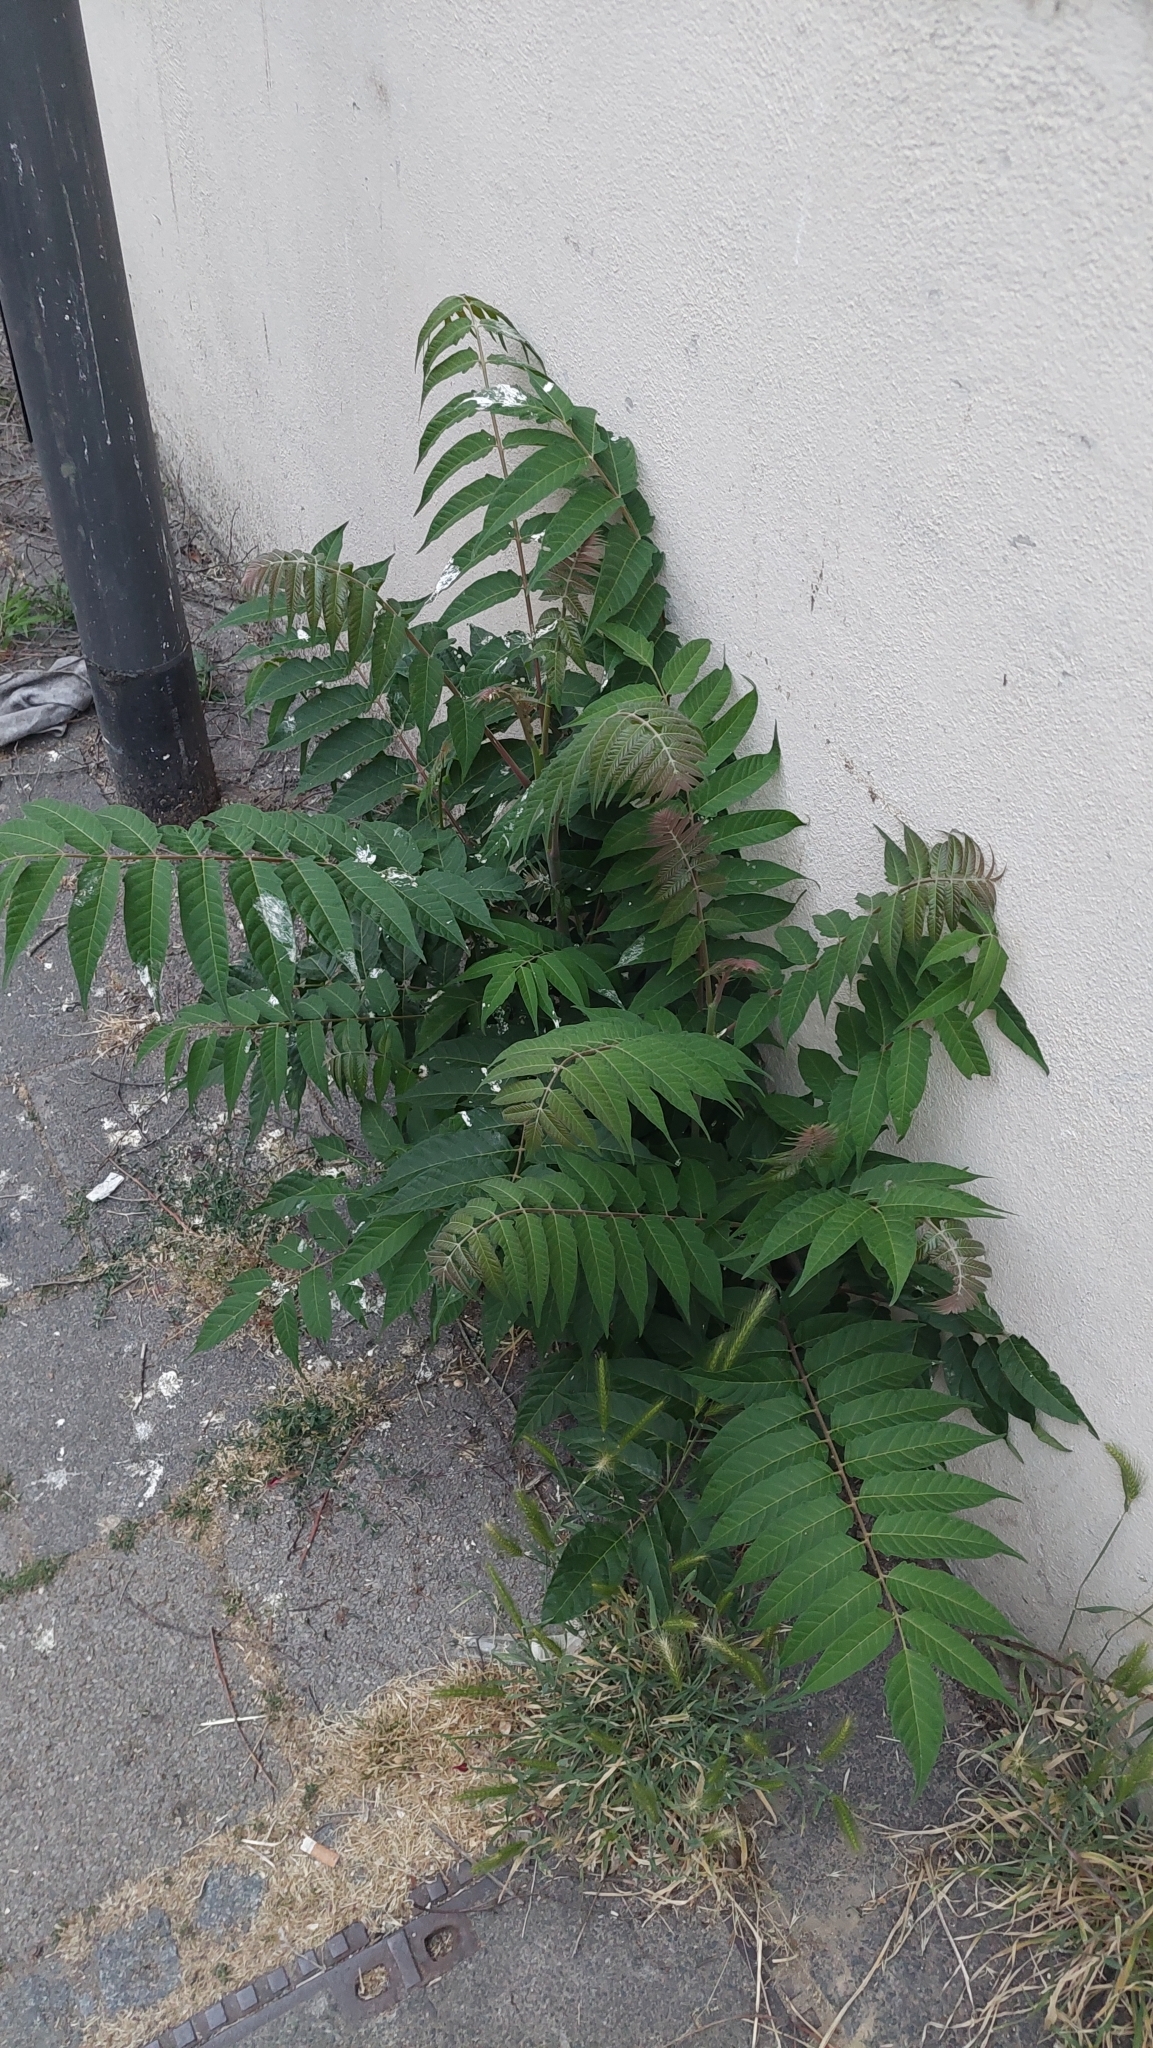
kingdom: Plantae
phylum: Tracheophyta
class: Magnoliopsida
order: Sapindales
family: Simaroubaceae
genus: Ailanthus
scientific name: Ailanthus altissima
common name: Tree-of-heaven
